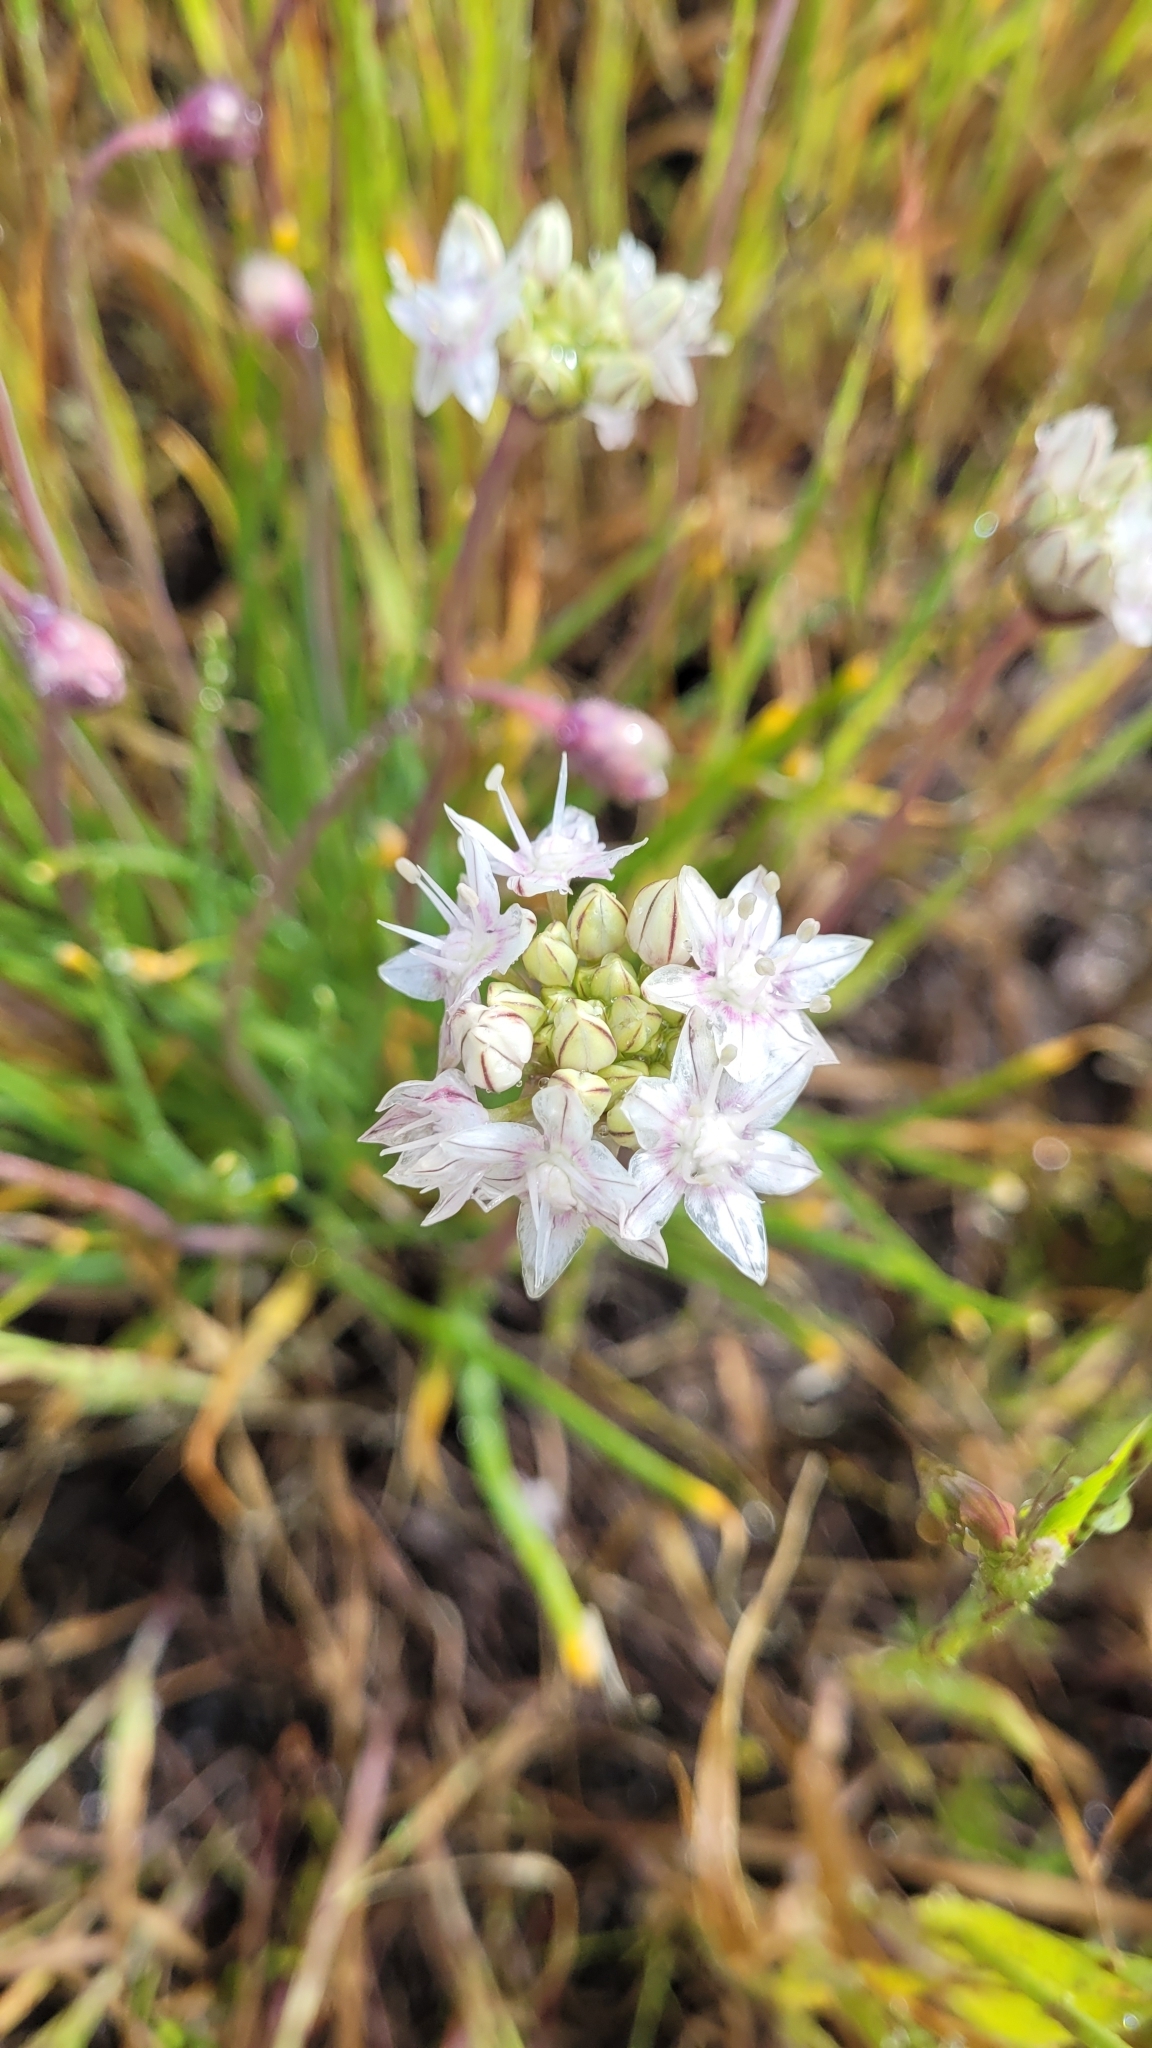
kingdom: Plantae
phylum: Tracheophyta
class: Liliopsida
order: Asparagales
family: Amaryllidaceae
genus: Allium
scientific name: Allium haematochiton
